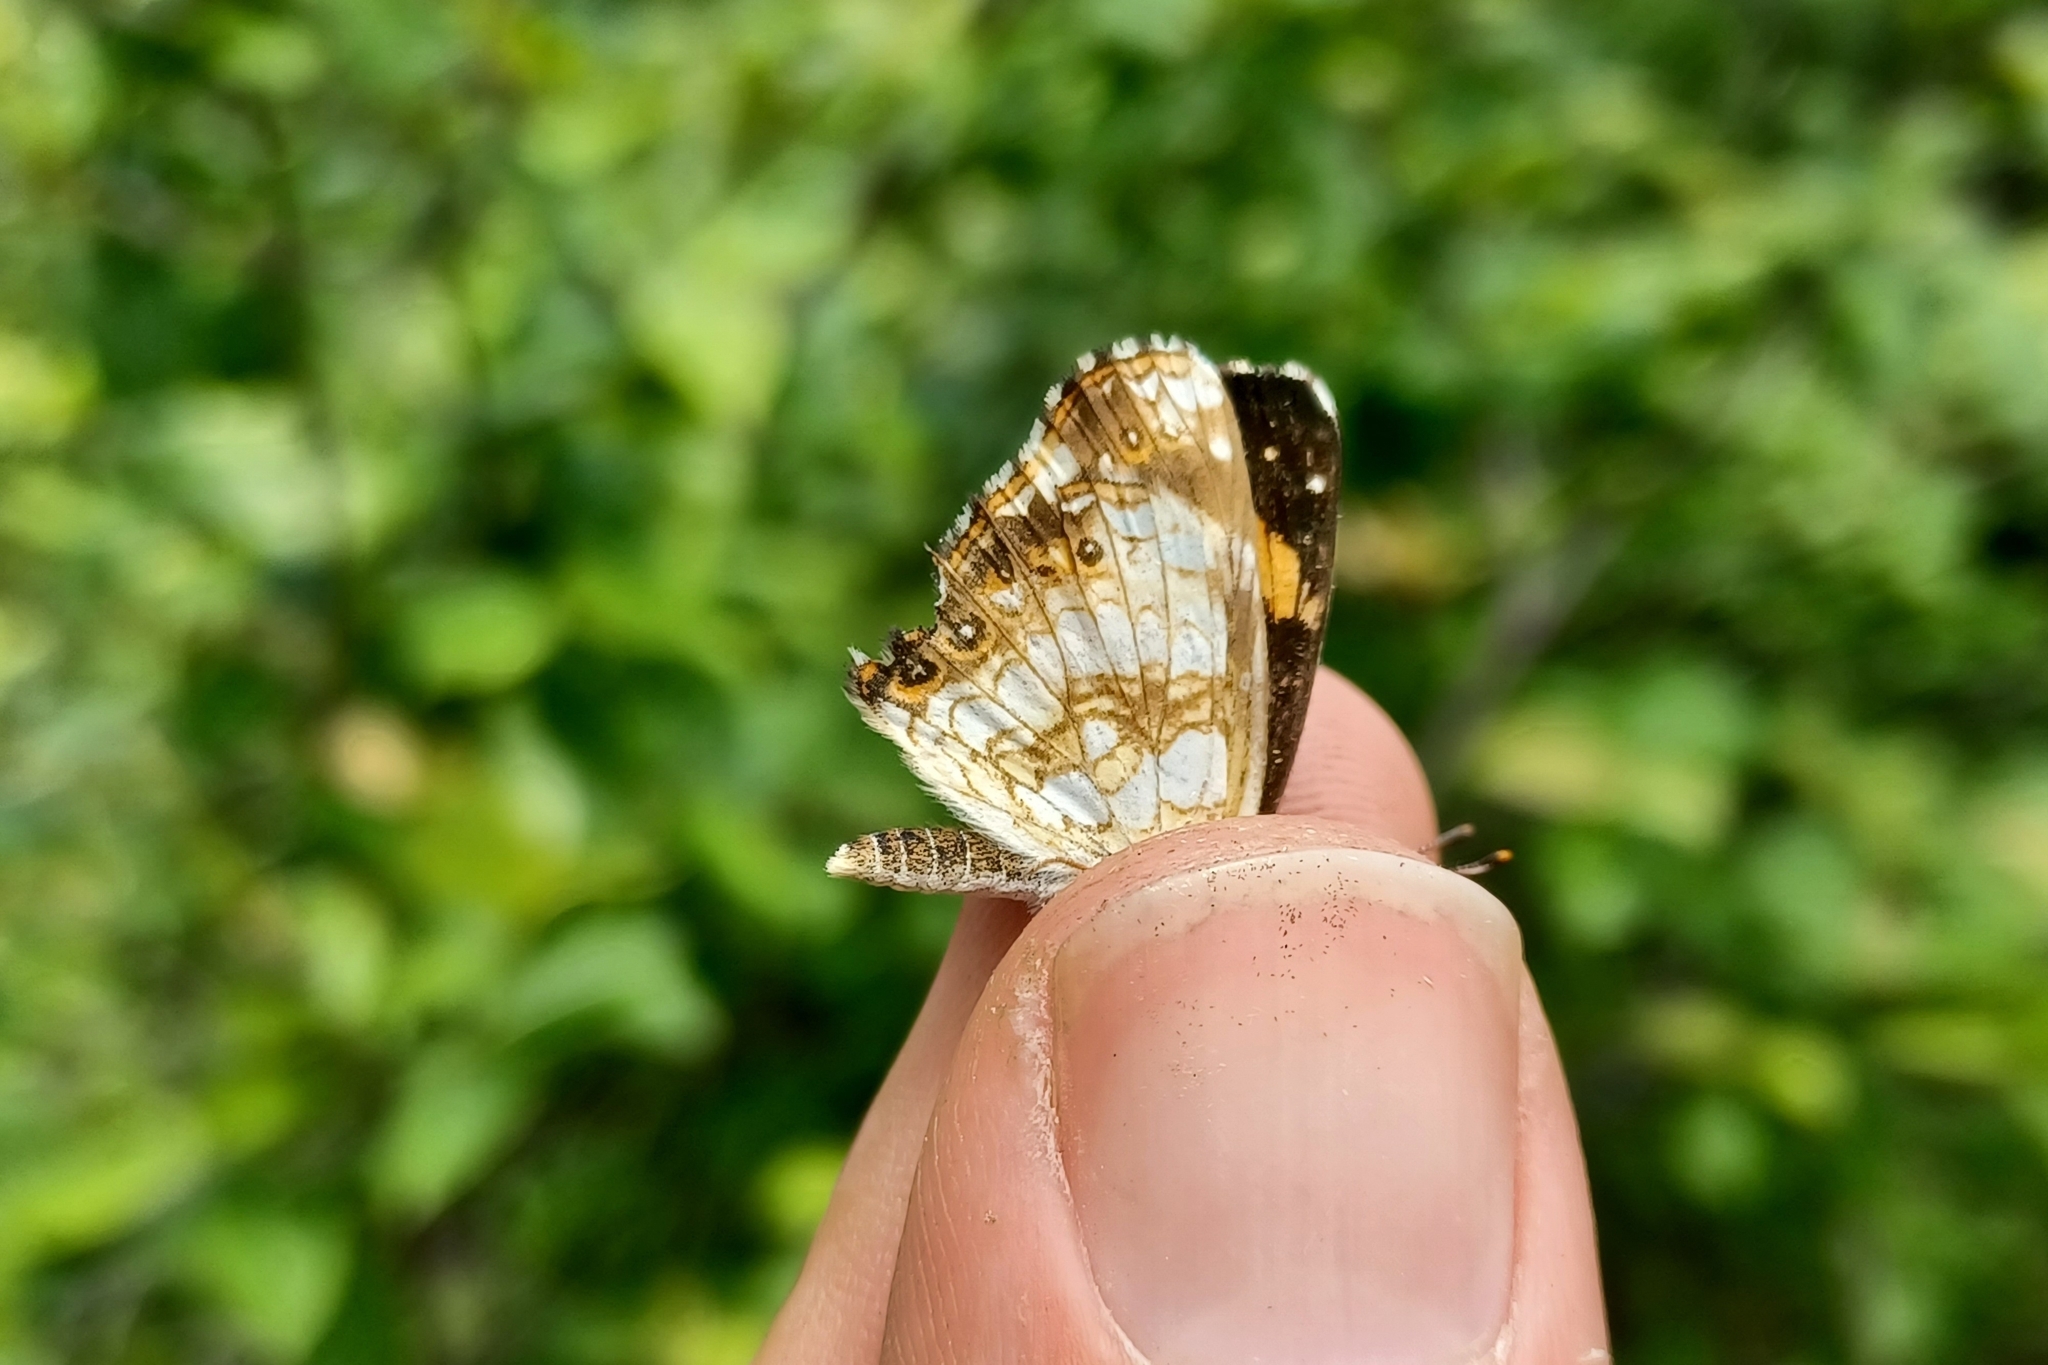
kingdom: Animalia
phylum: Arthropoda
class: Insecta
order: Lepidoptera
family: Nymphalidae
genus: Chlosyne
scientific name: Chlosyne nycteis
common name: Silvery checkerspot
